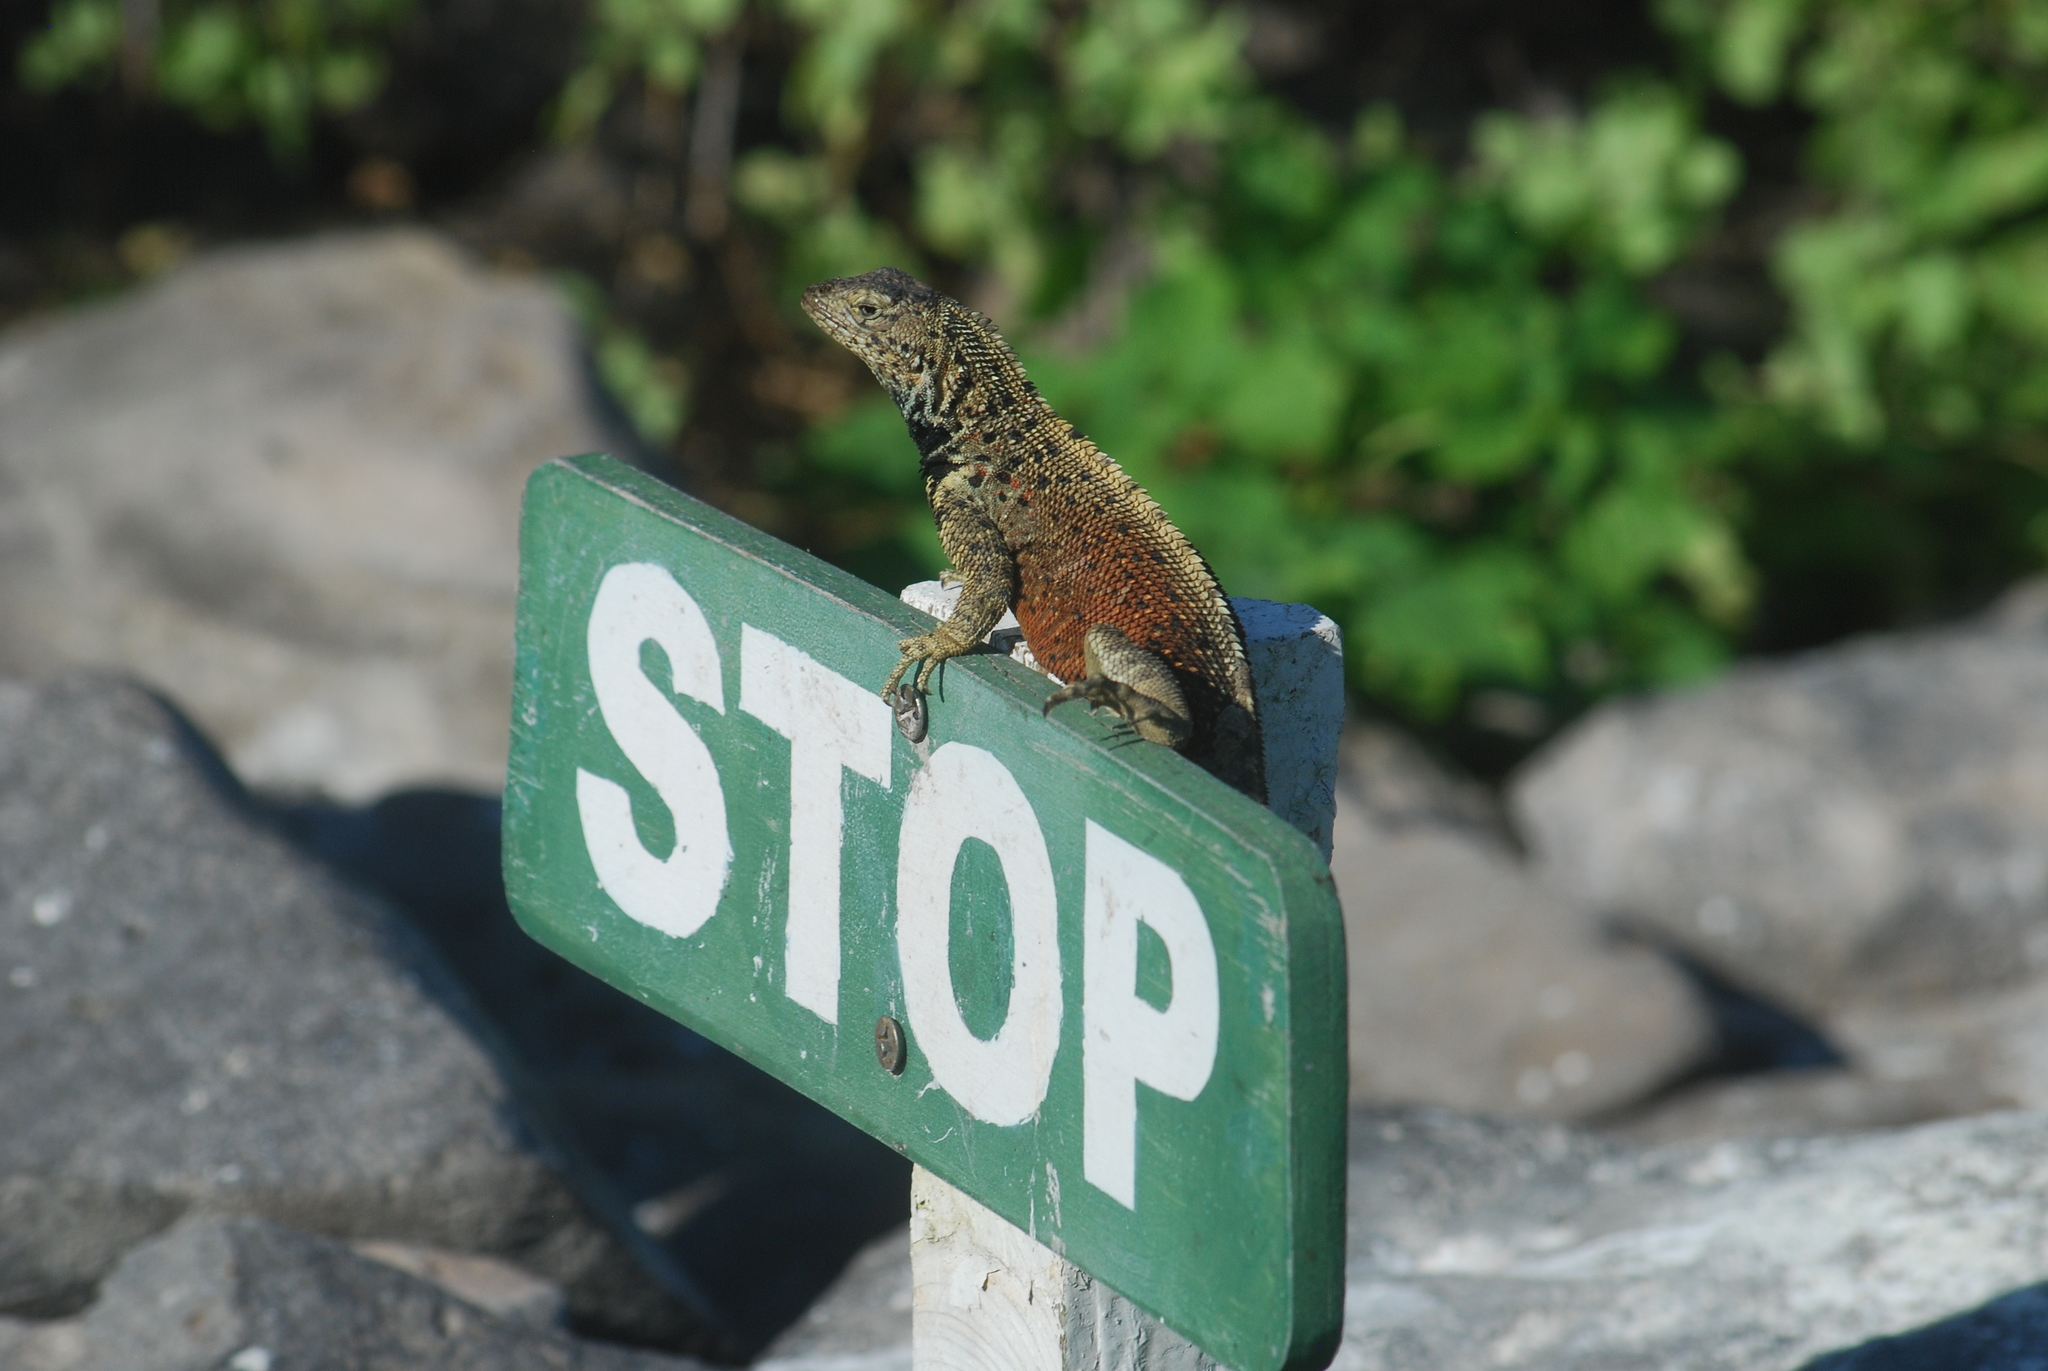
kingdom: Animalia
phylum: Chordata
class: Squamata
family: Tropiduridae
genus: Microlophus
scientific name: Microlophus delanonis
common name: Hood lava lizard
